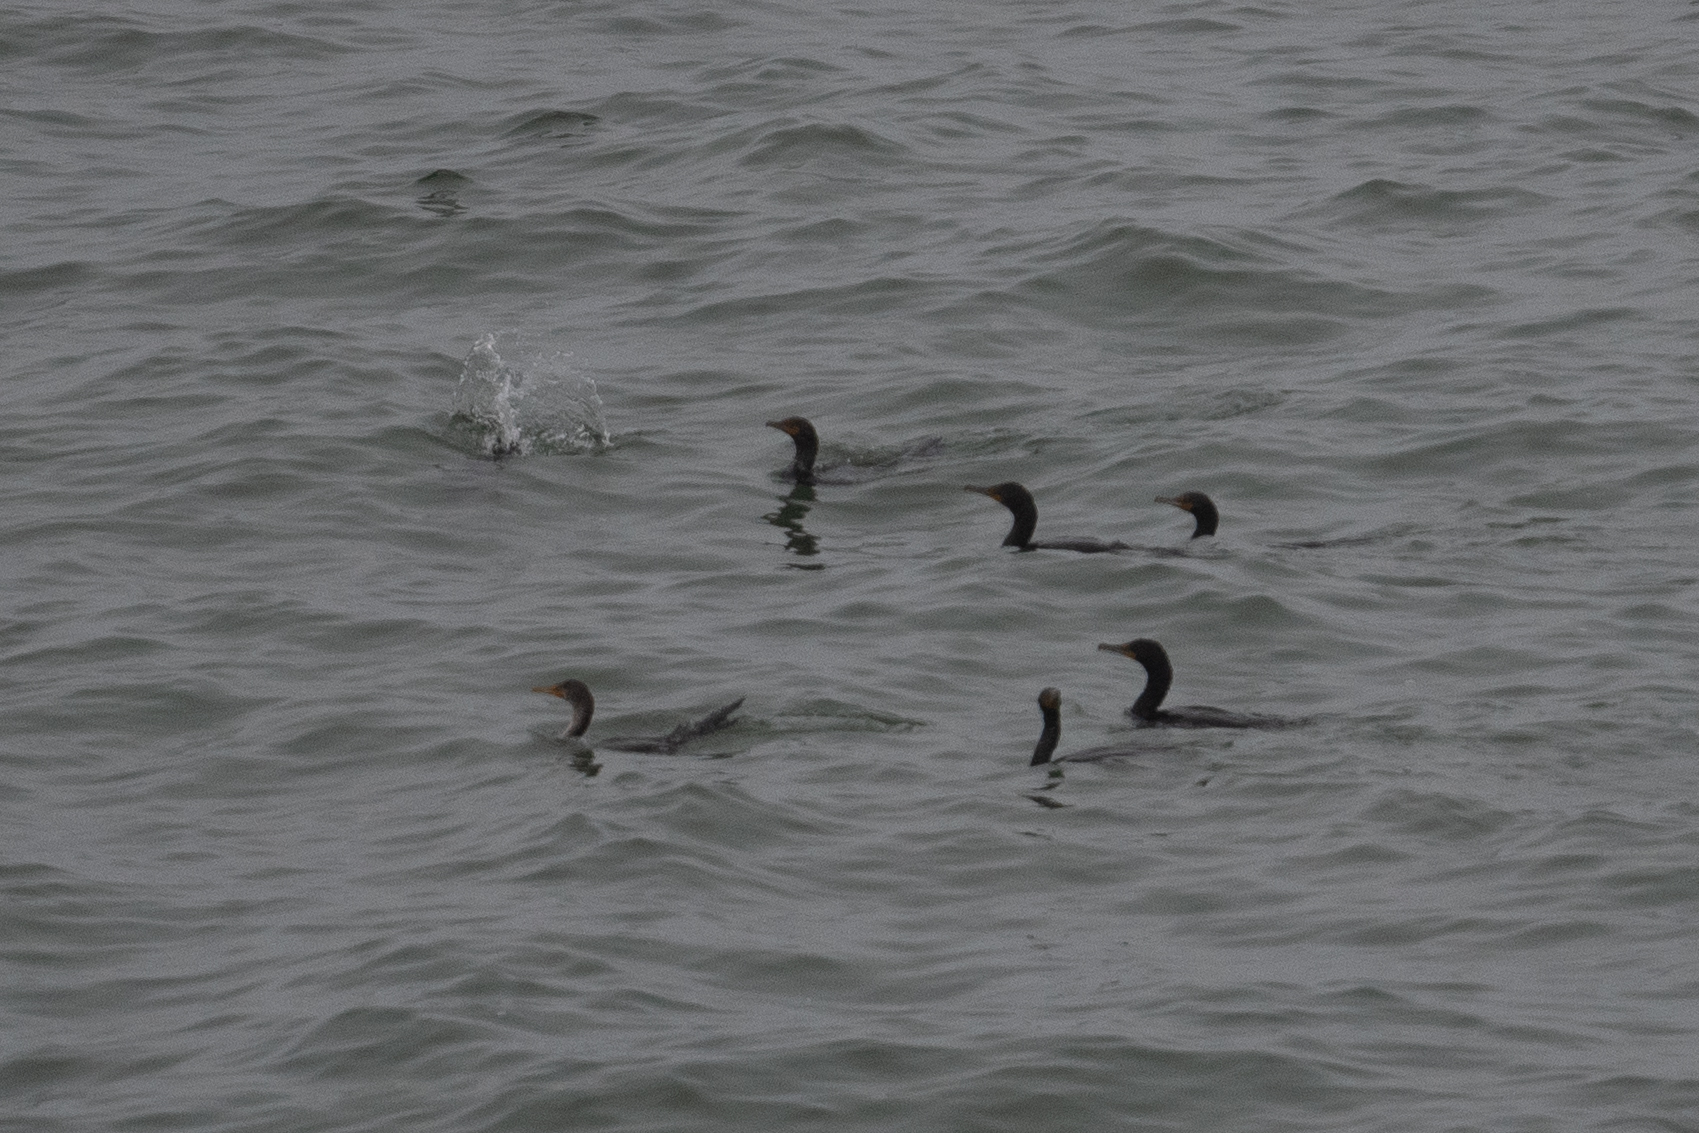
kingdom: Animalia
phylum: Chordata
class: Aves
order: Suliformes
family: Phalacrocoracidae
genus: Phalacrocorax
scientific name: Phalacrocorax auritus
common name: Double-crested cormorant
